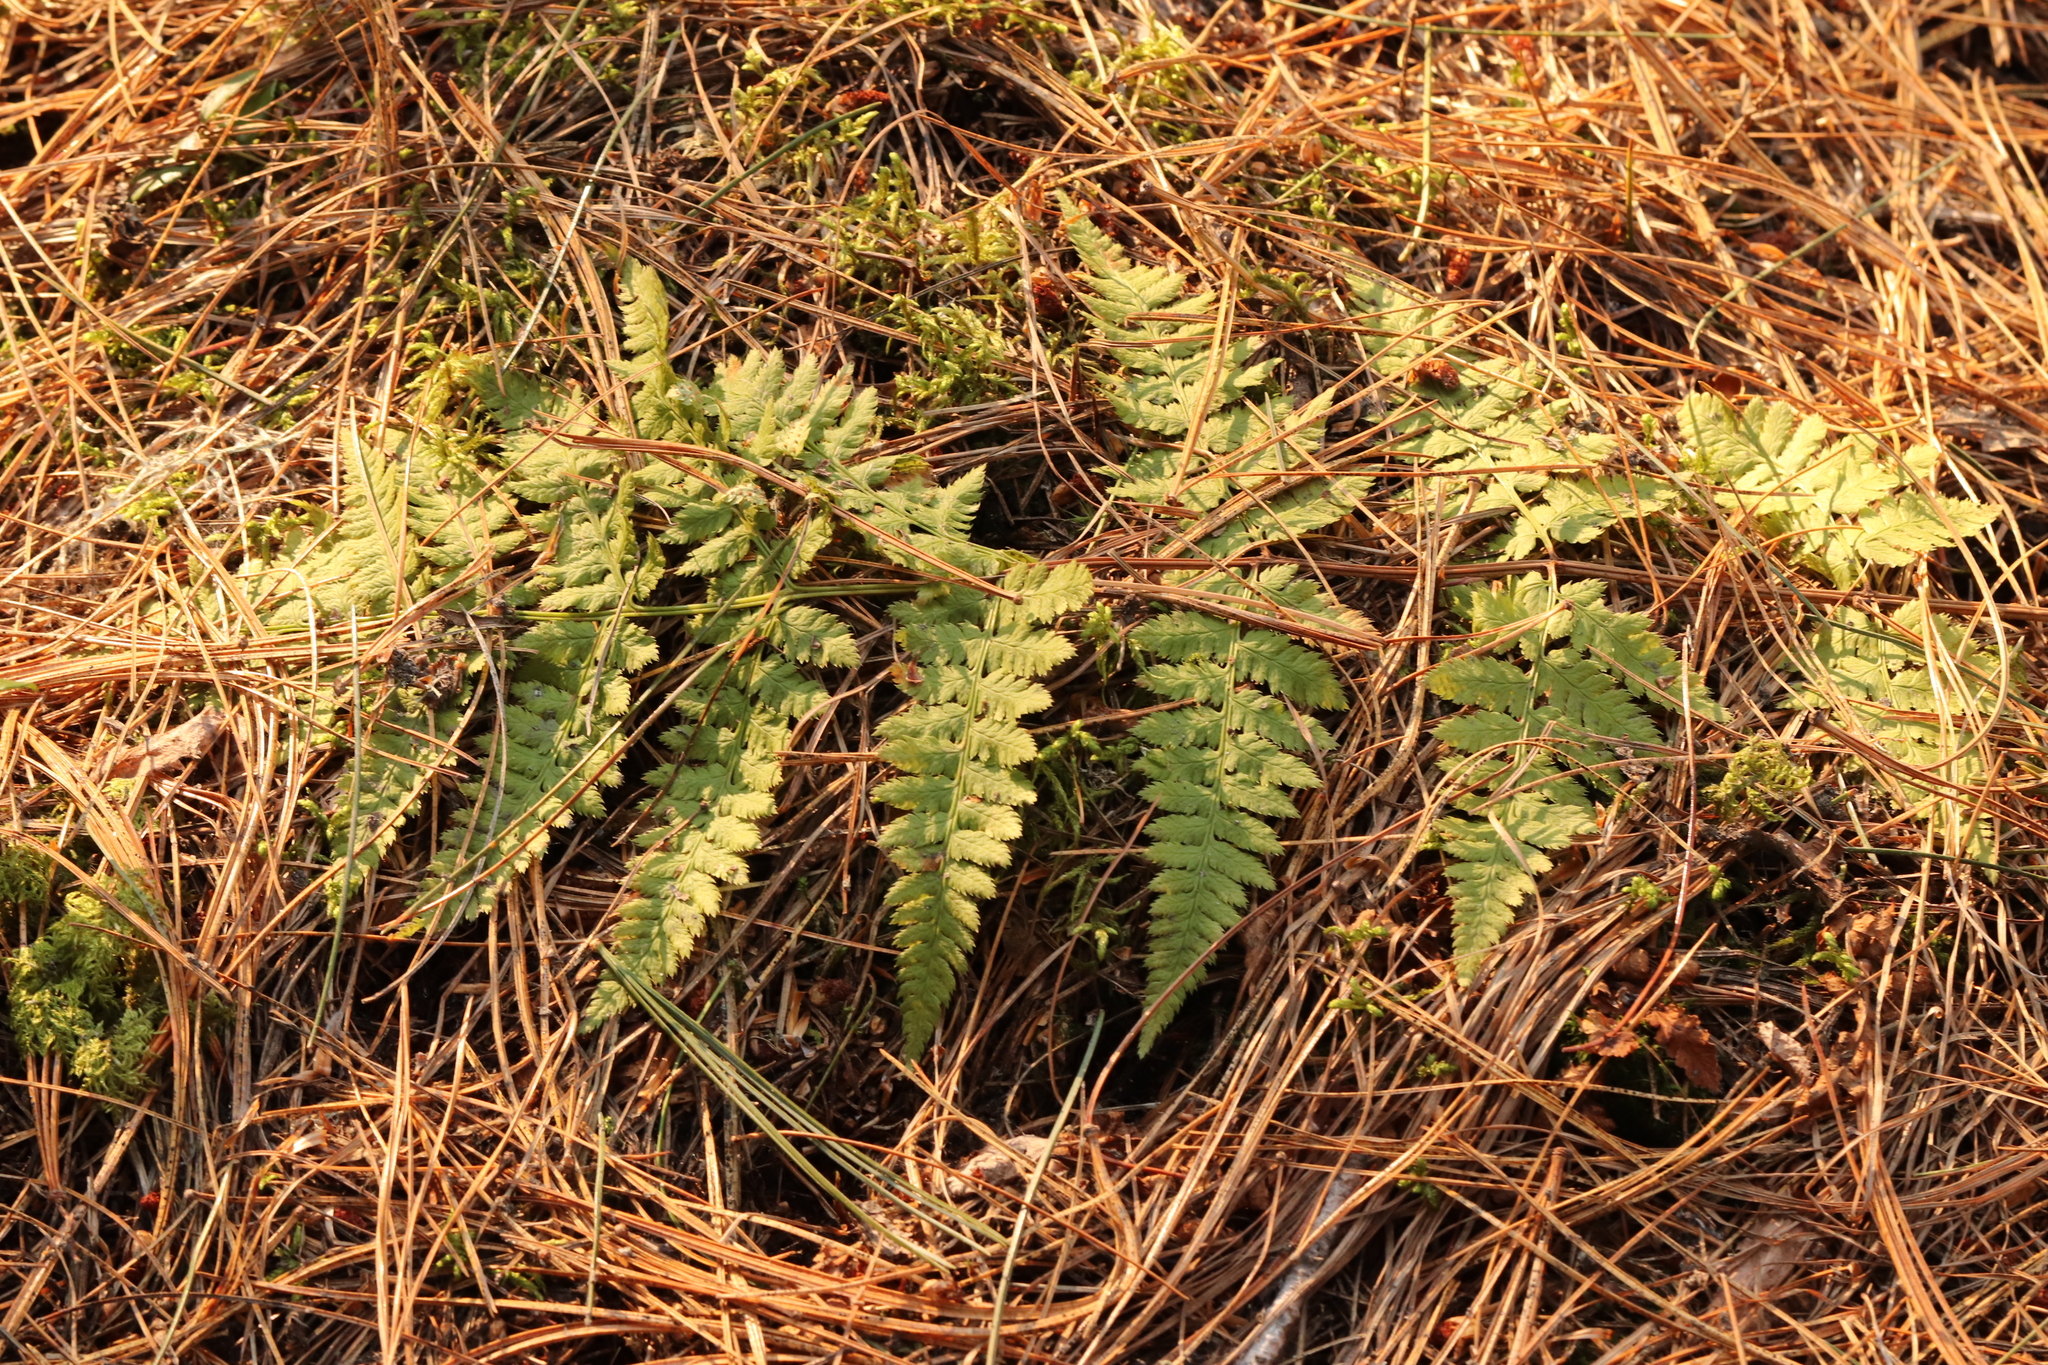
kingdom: Plantae
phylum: Tracheophyta
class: Polypodiopsida
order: Polypodiales
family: Dryopteridaceae
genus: Dryopteris
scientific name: Dryopteris carthusiana
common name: Narrow buckler-fern
